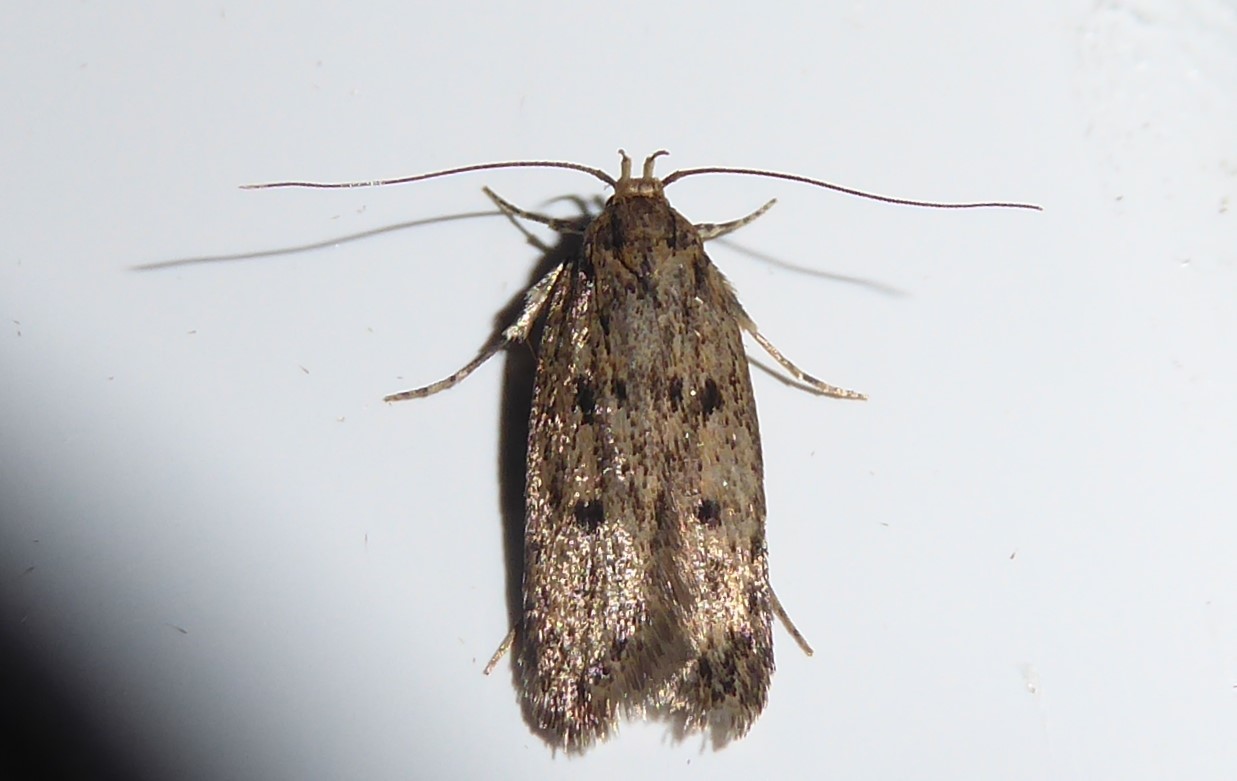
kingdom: Animalia
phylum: Arthropoda
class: Insecta
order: Lepidoptera
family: Oecophoridae
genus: Hofmannophila
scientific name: Hofmannophila pseudospretella
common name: Brown house moth
